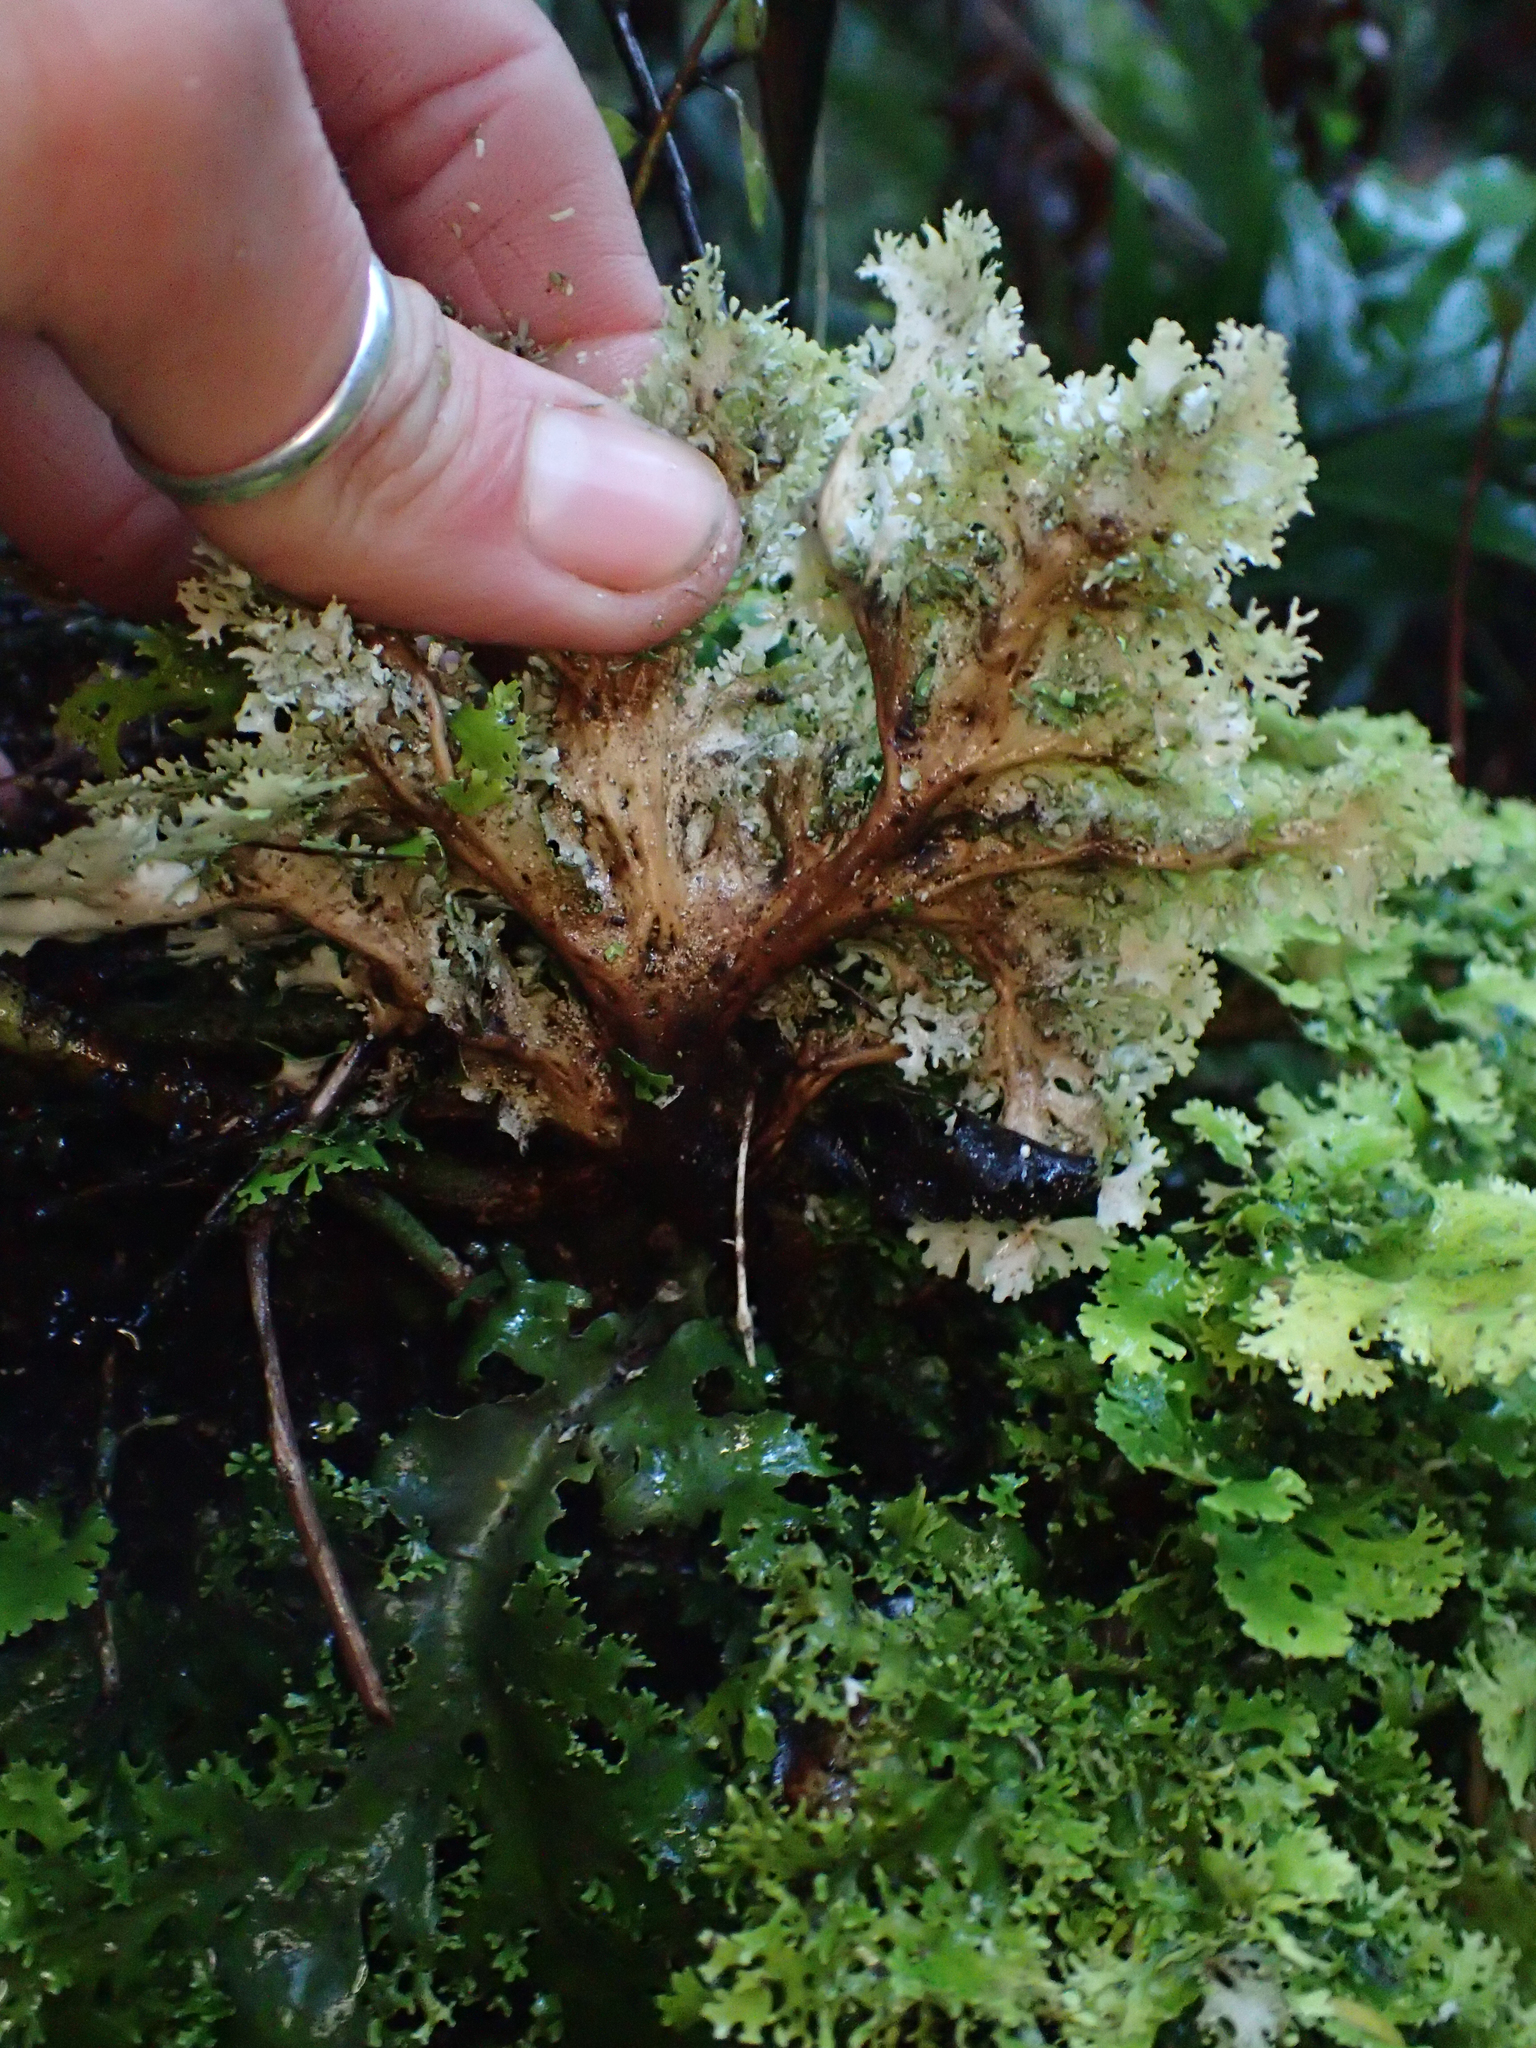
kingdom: Fungi
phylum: Ascomycota
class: Lecanoromycetes
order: Peltigerales
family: Lobariaceae
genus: Sticta
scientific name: Sticta filix
